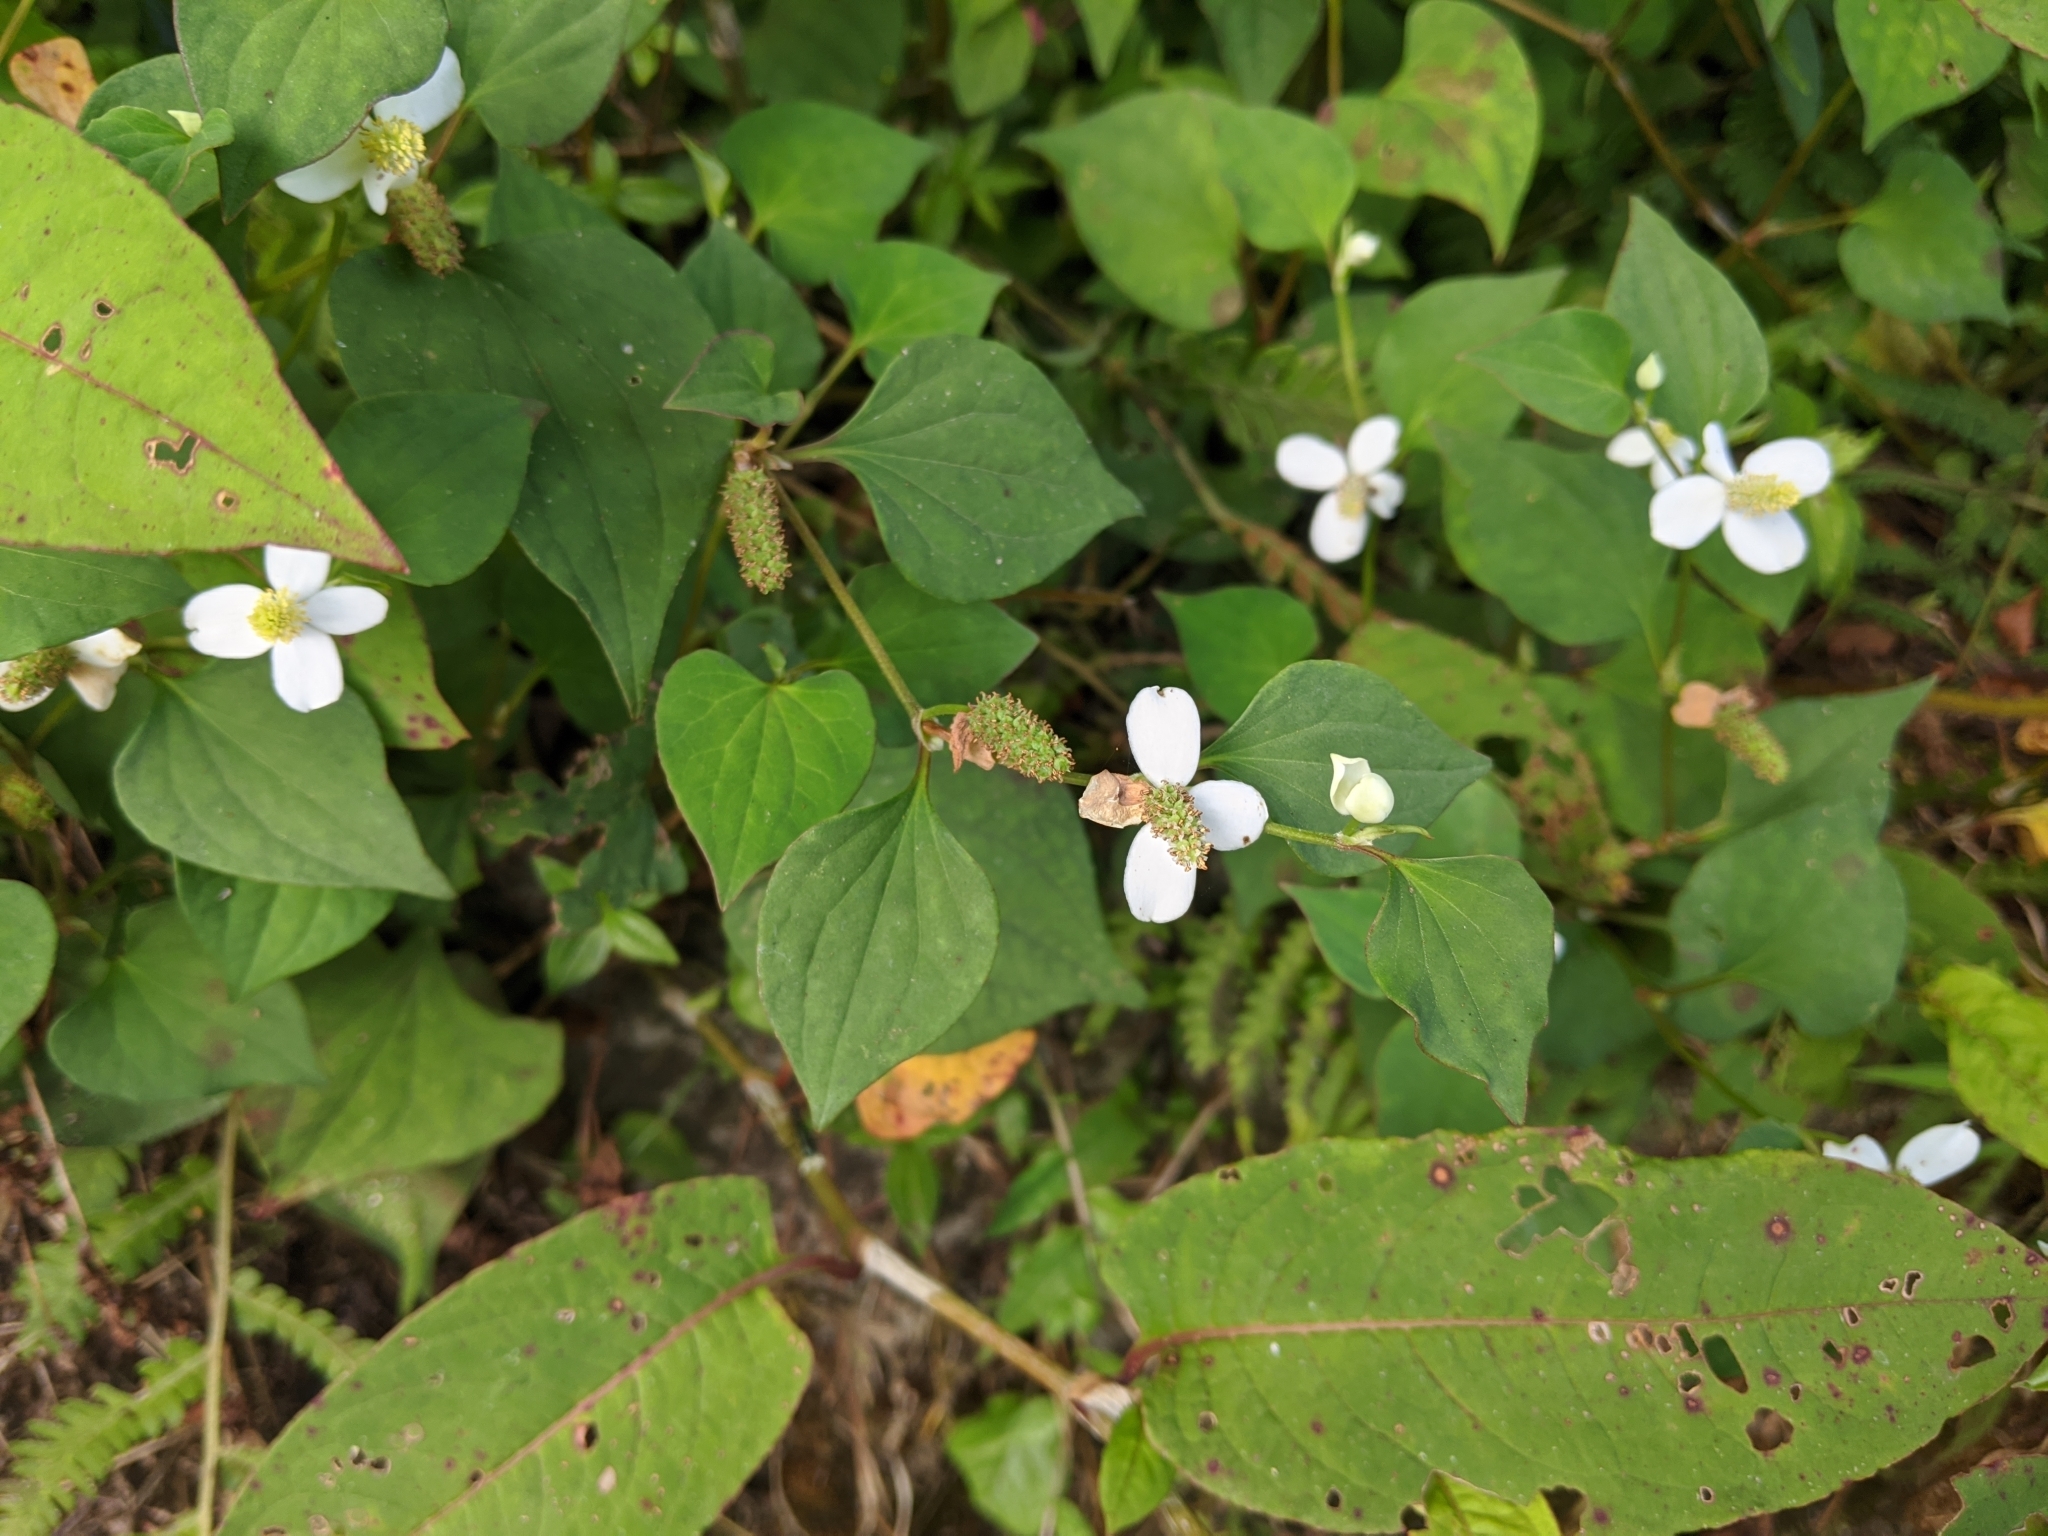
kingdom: Plantae
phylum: Tracheophyta
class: Magnoliopsida
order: Piperales
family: Saururaceae
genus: Houttuynia
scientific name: Houttuynia cordata
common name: Chameleon
